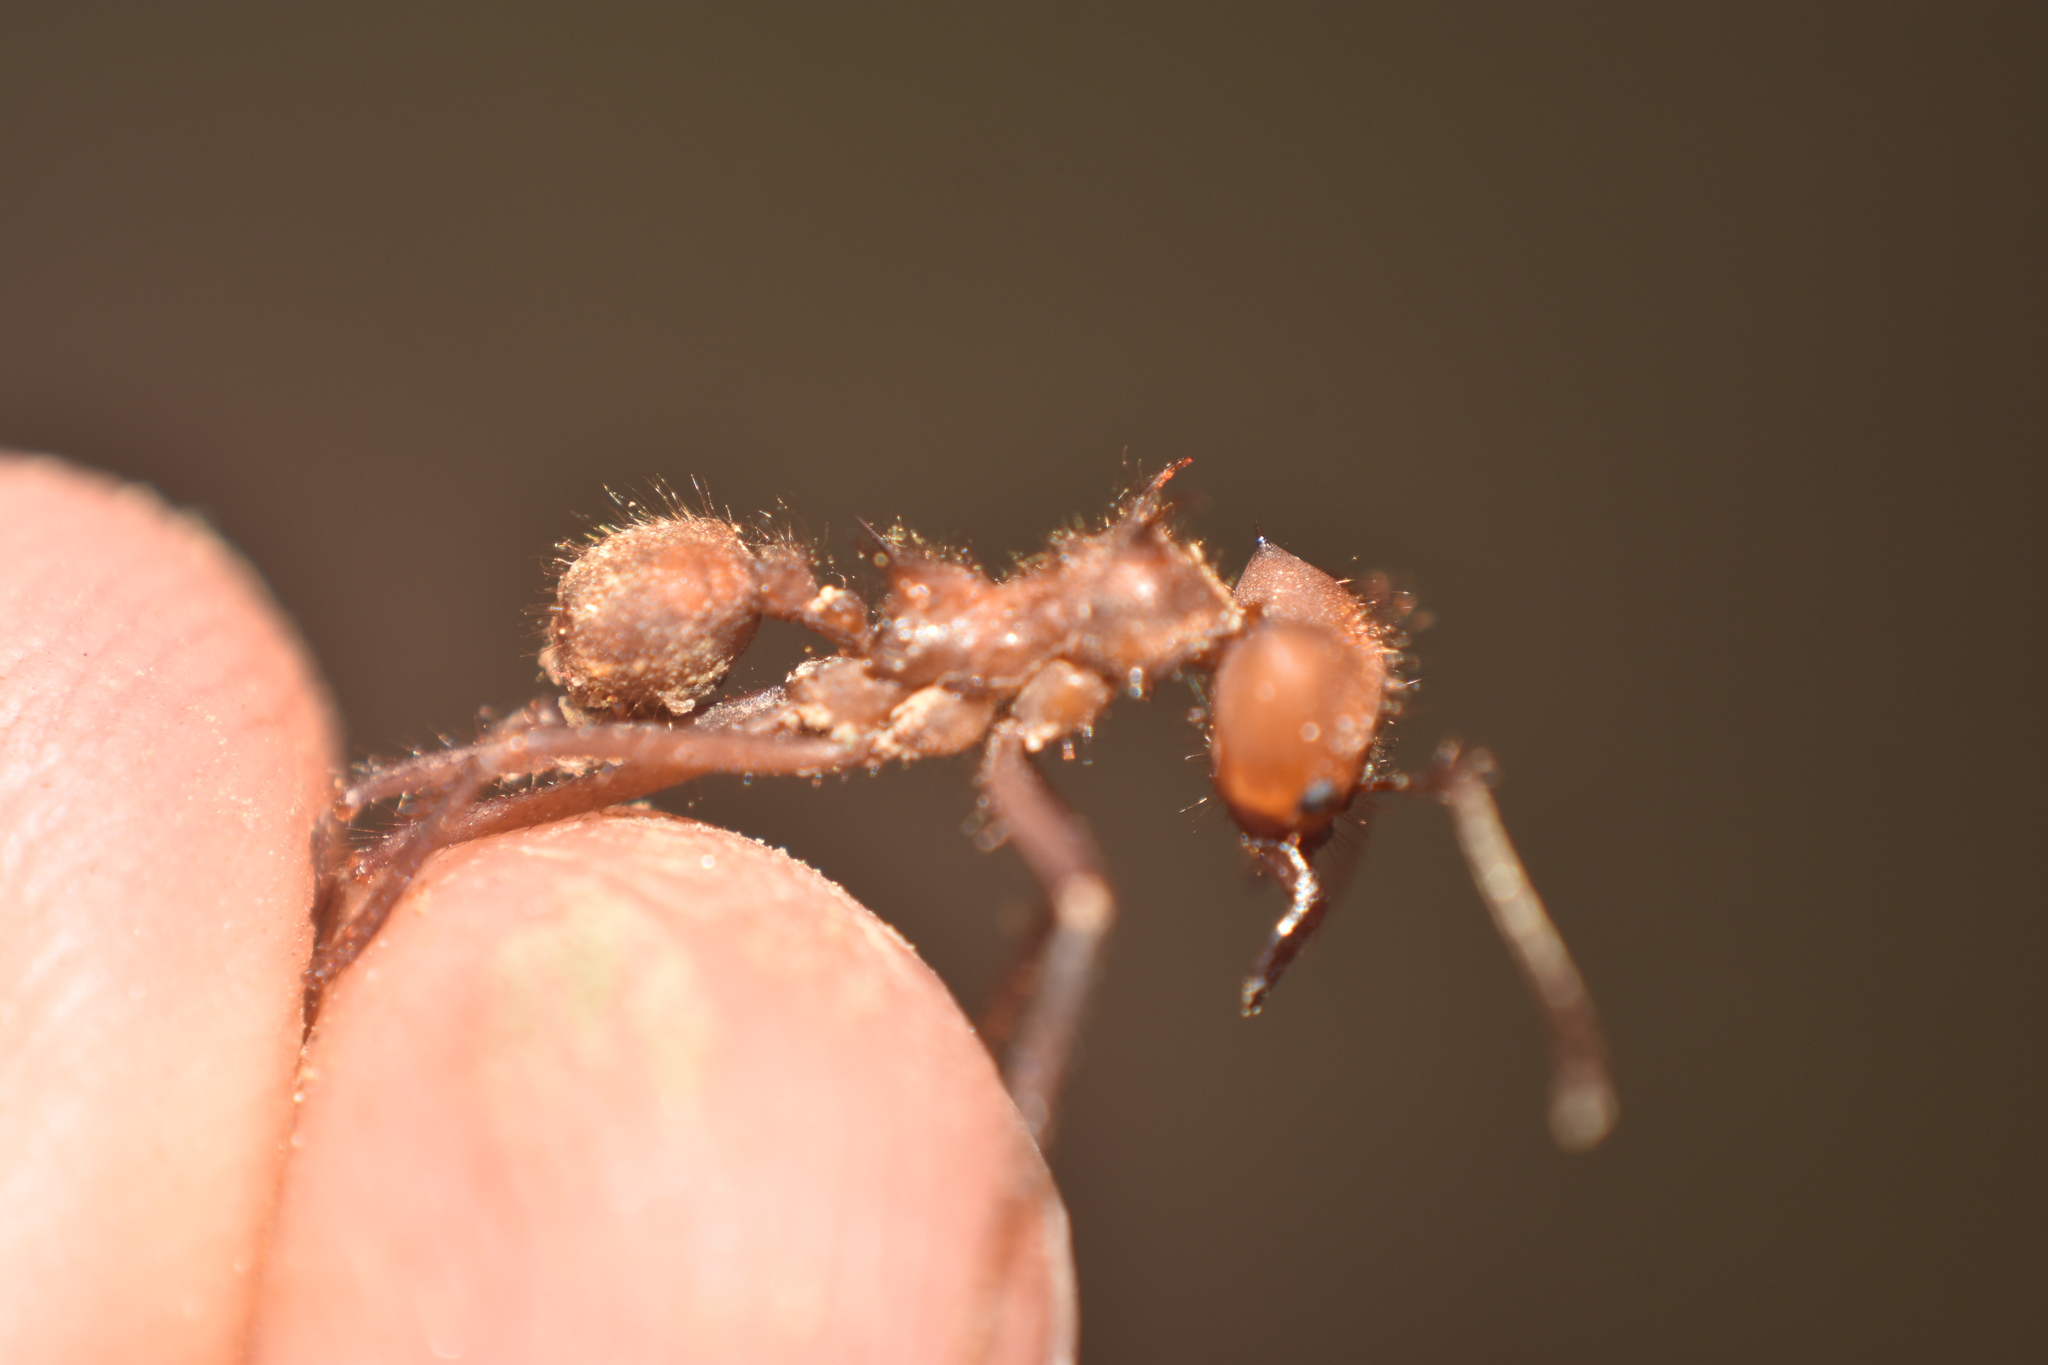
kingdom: Animalia
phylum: Arthropoda
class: Insecta
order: Hymenoptera
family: Formicidae
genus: Atta
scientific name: Atta cephalotes
